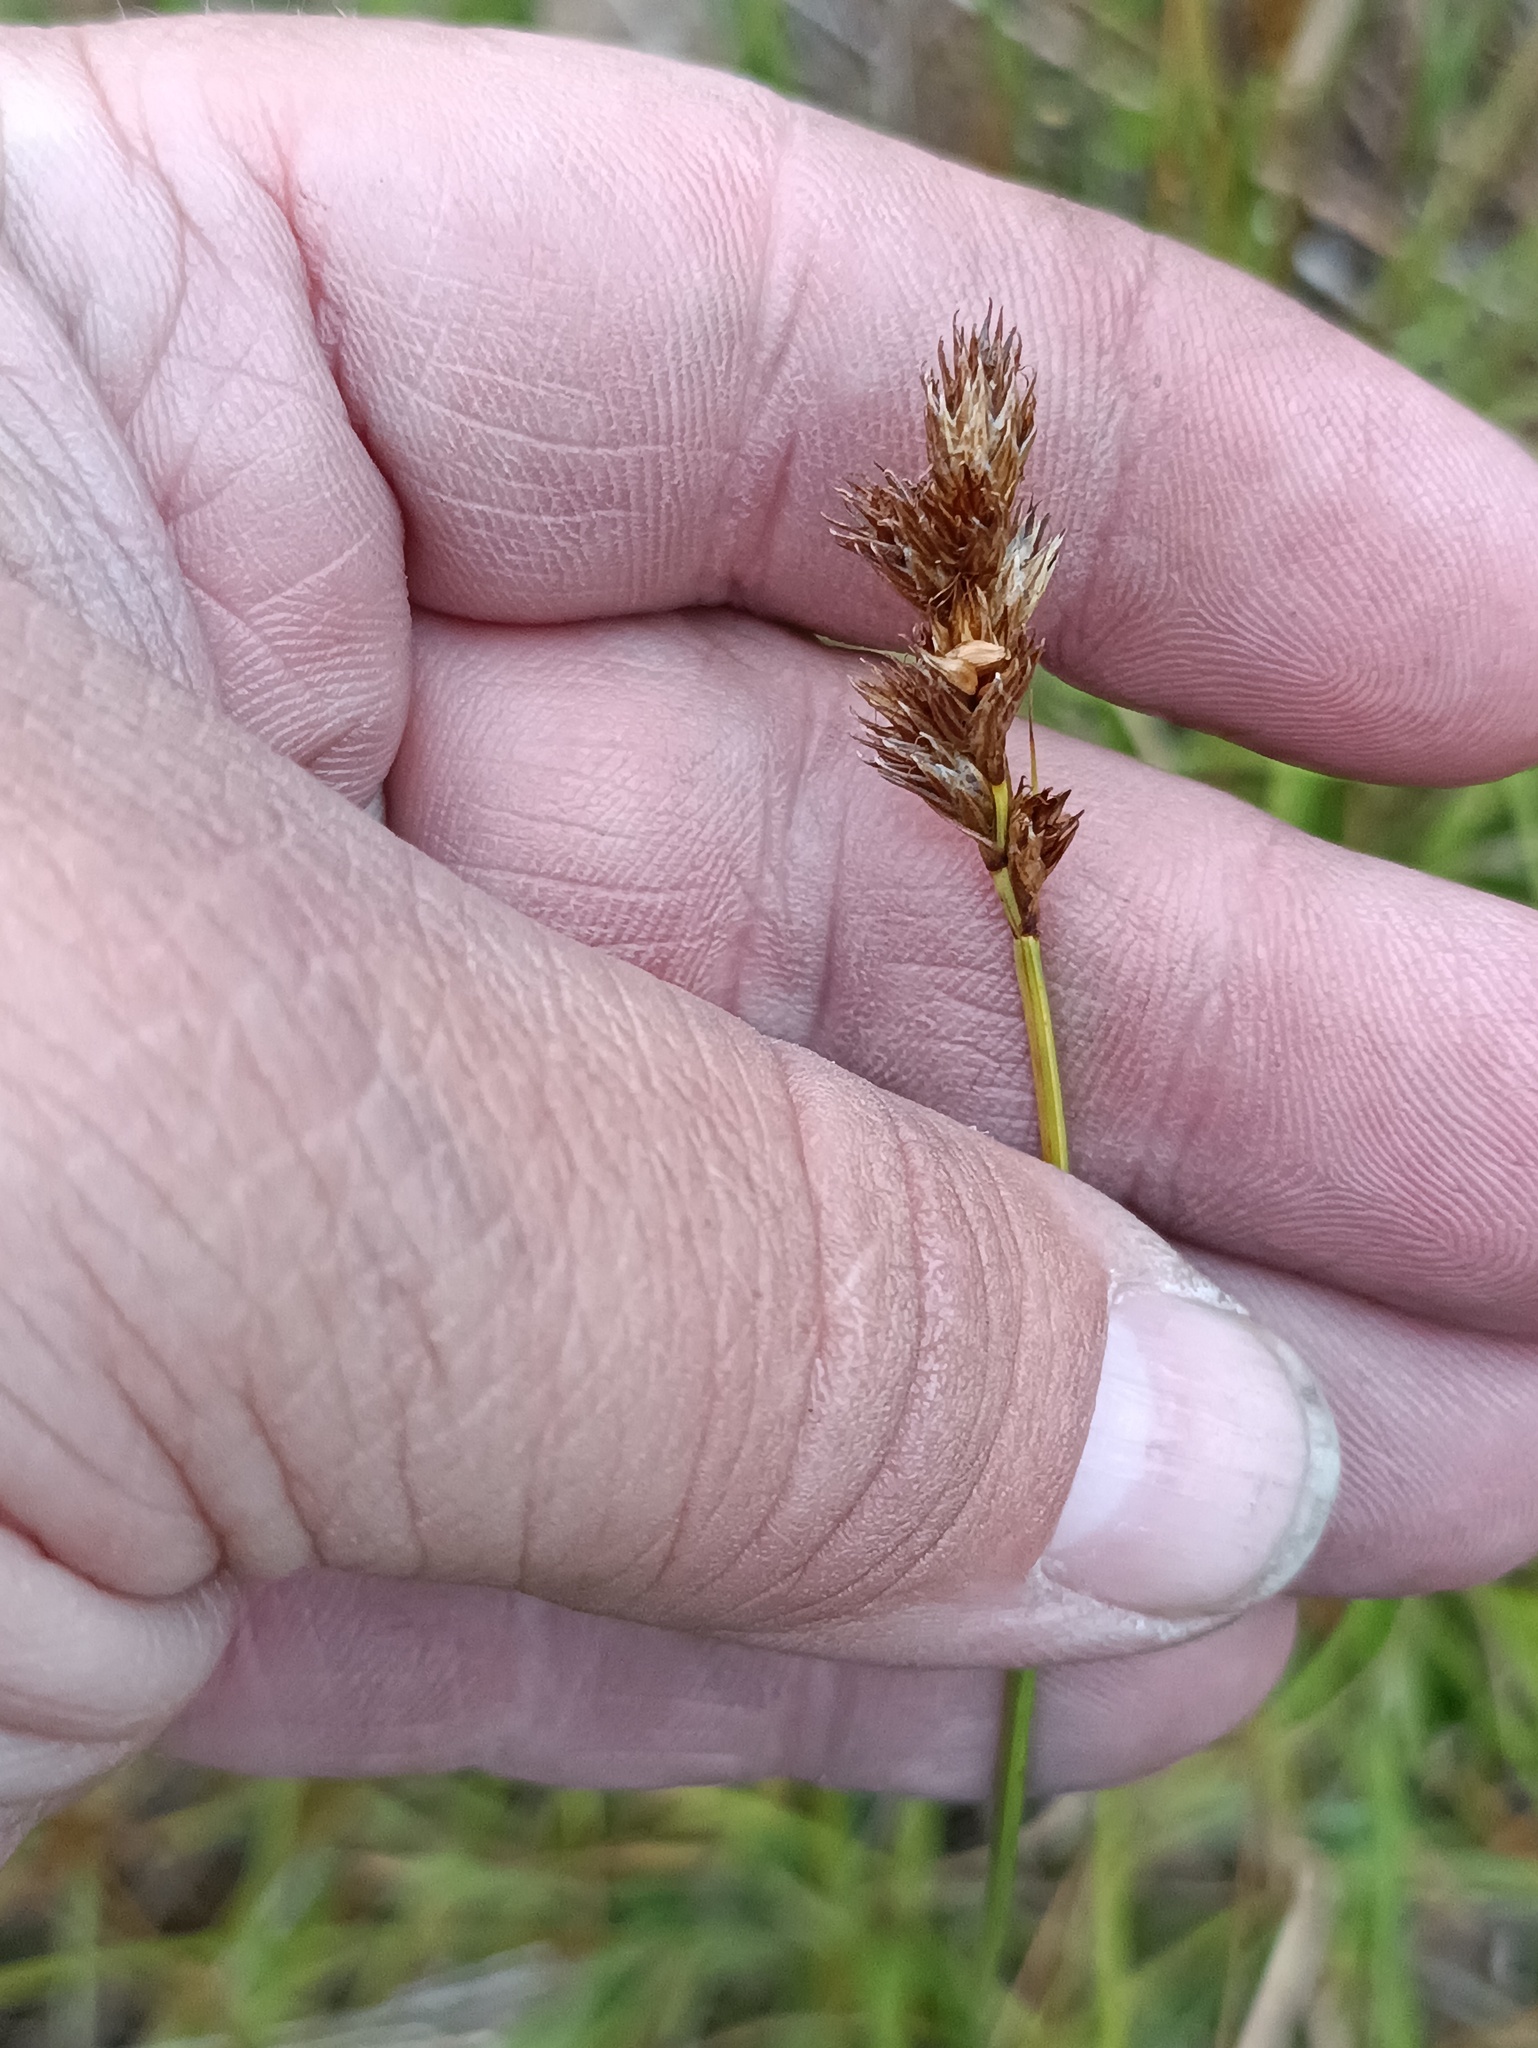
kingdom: Plantae
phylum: Tracheophyta
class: Liliopsida
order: Poales
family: Cyperaceae
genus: Carex
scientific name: Carex leporina
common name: Oval sedge
